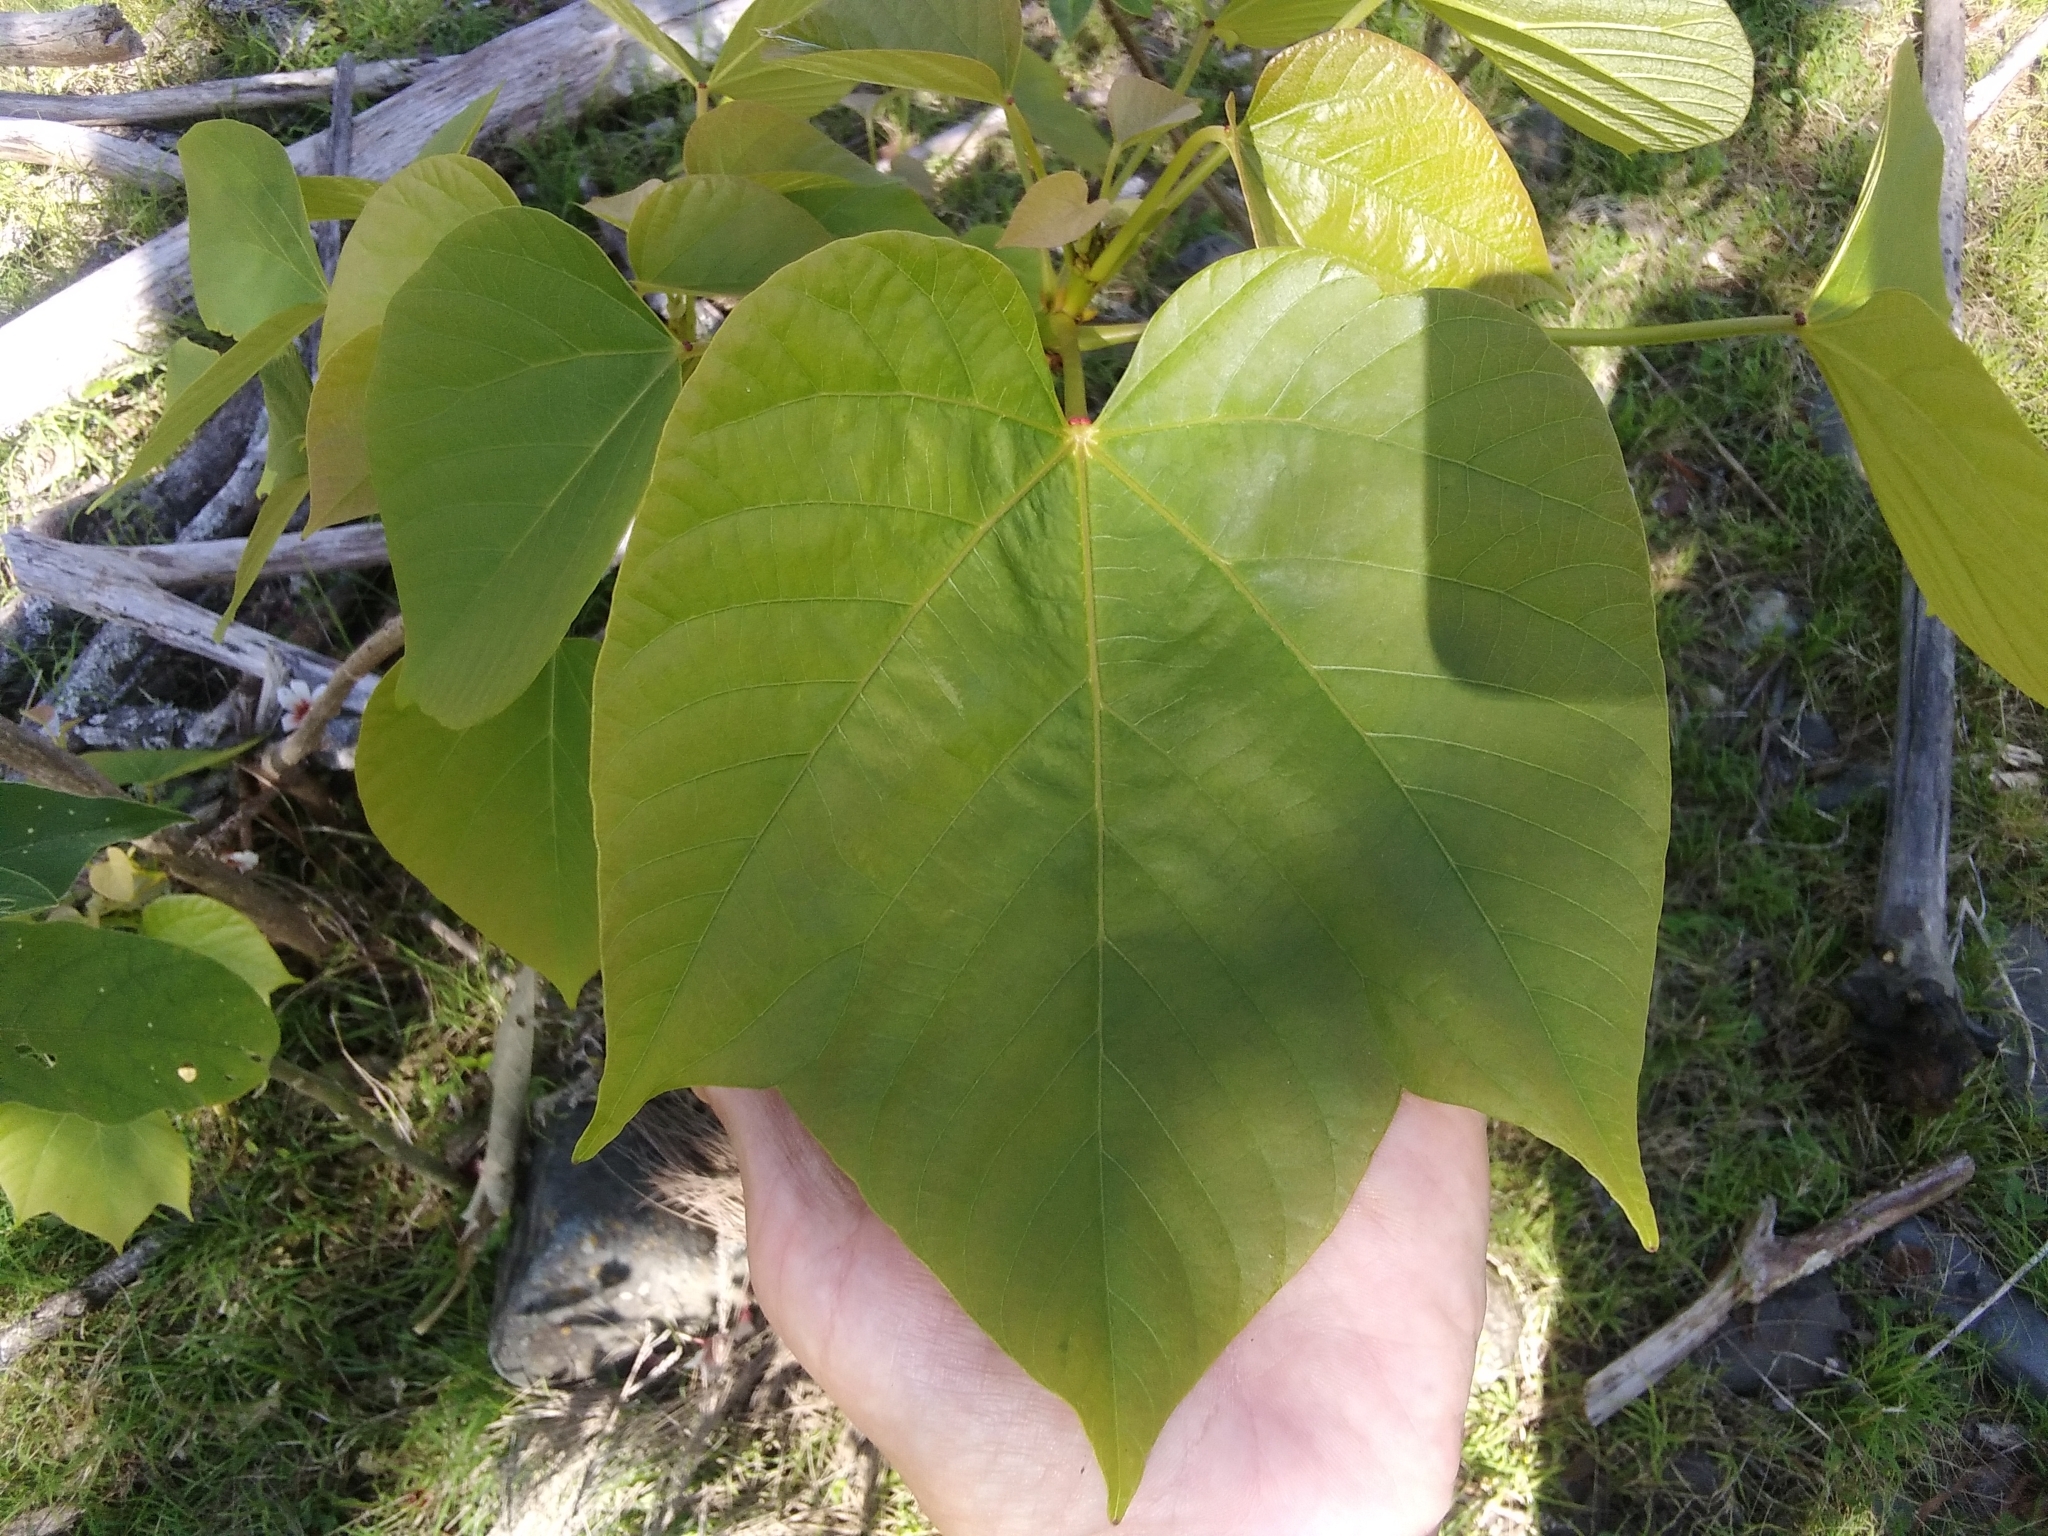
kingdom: Plantae
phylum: Tracheophyta
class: Magnoliopsida
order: Malpighiales
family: Euphorbiaceae
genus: Vernicia
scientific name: Vernicia fordii
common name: Tungoil tree
